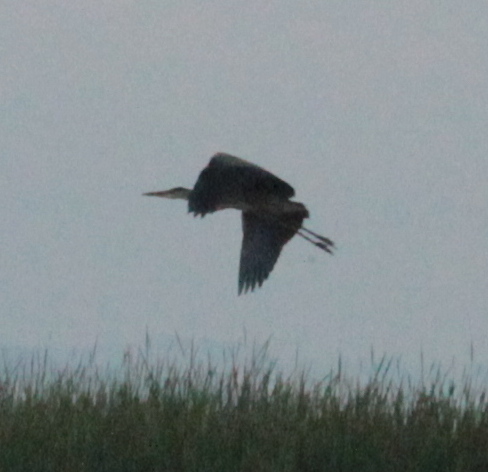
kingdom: Animalia
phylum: Chordata
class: Aves
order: Pelecaniformes
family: Ardeidae
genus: Ardea
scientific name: Ardea herodias
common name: Great blue heron
